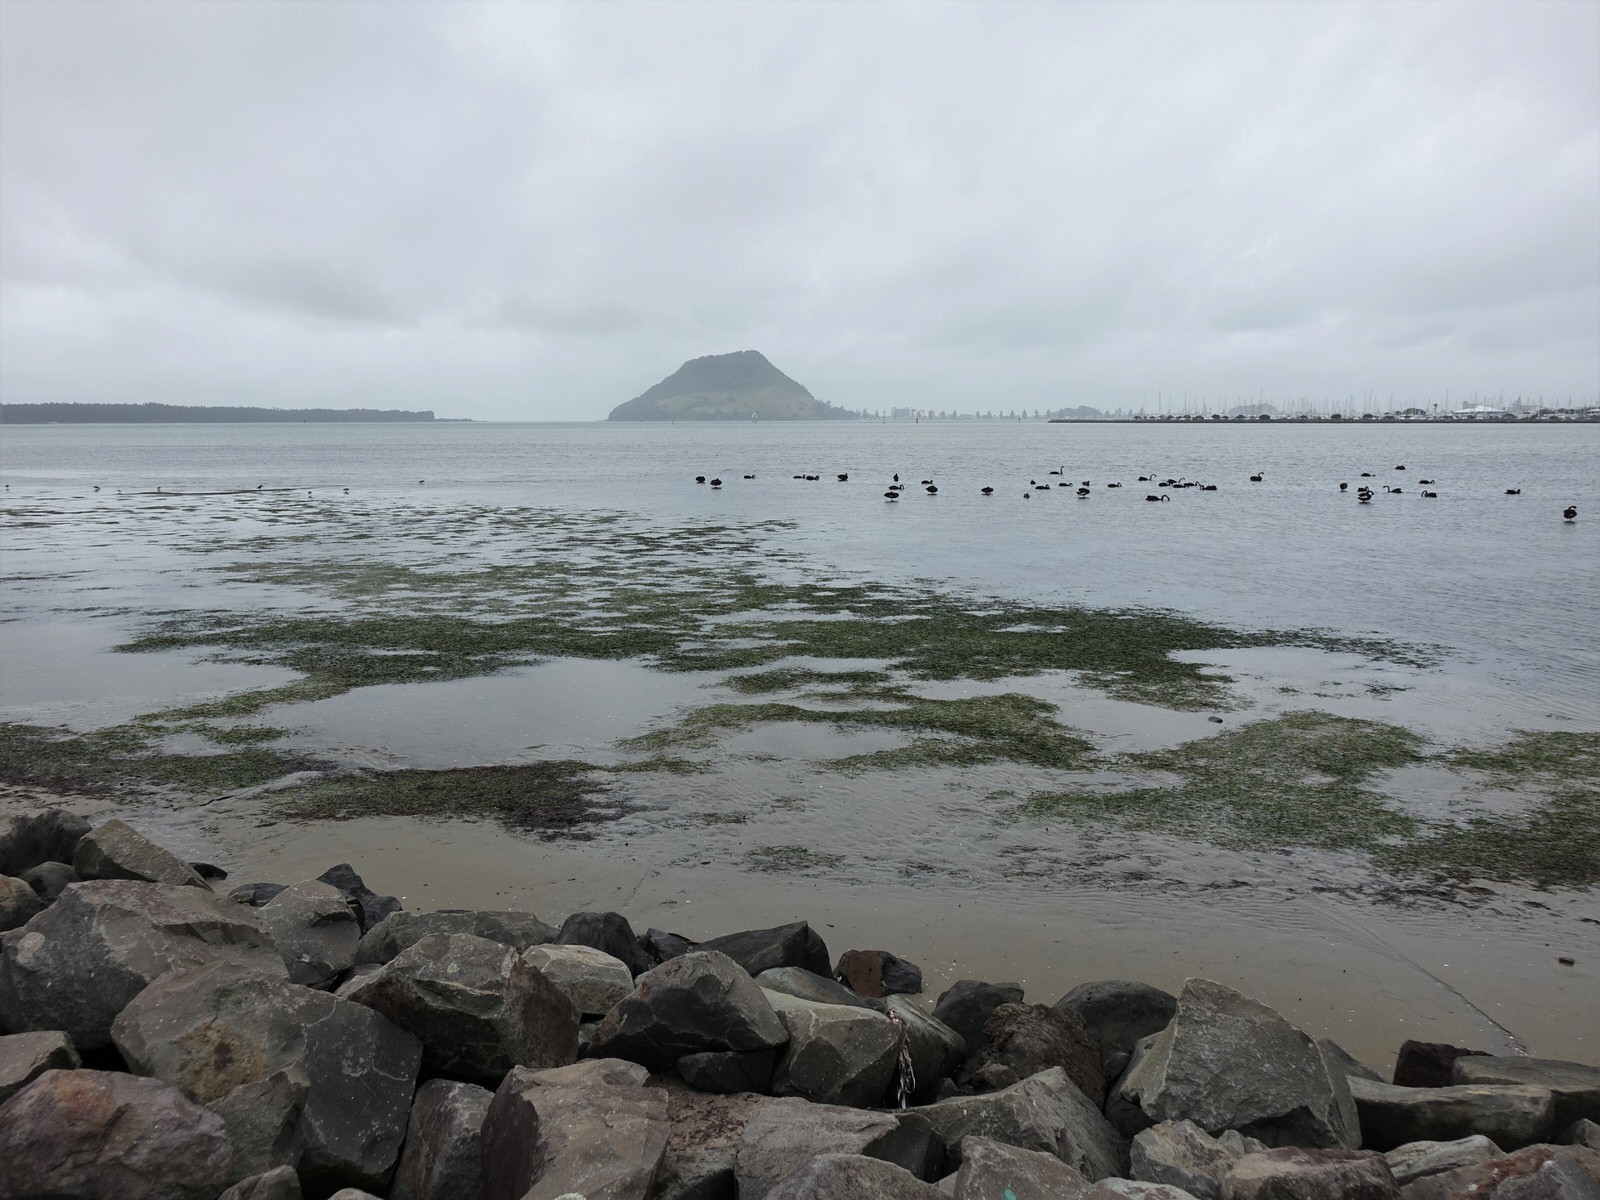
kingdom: Plantae
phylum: Tracheophyta
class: Liliopsida
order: Alismatales
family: Zosteraceae
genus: Zostera
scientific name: Zostera novazelandica
